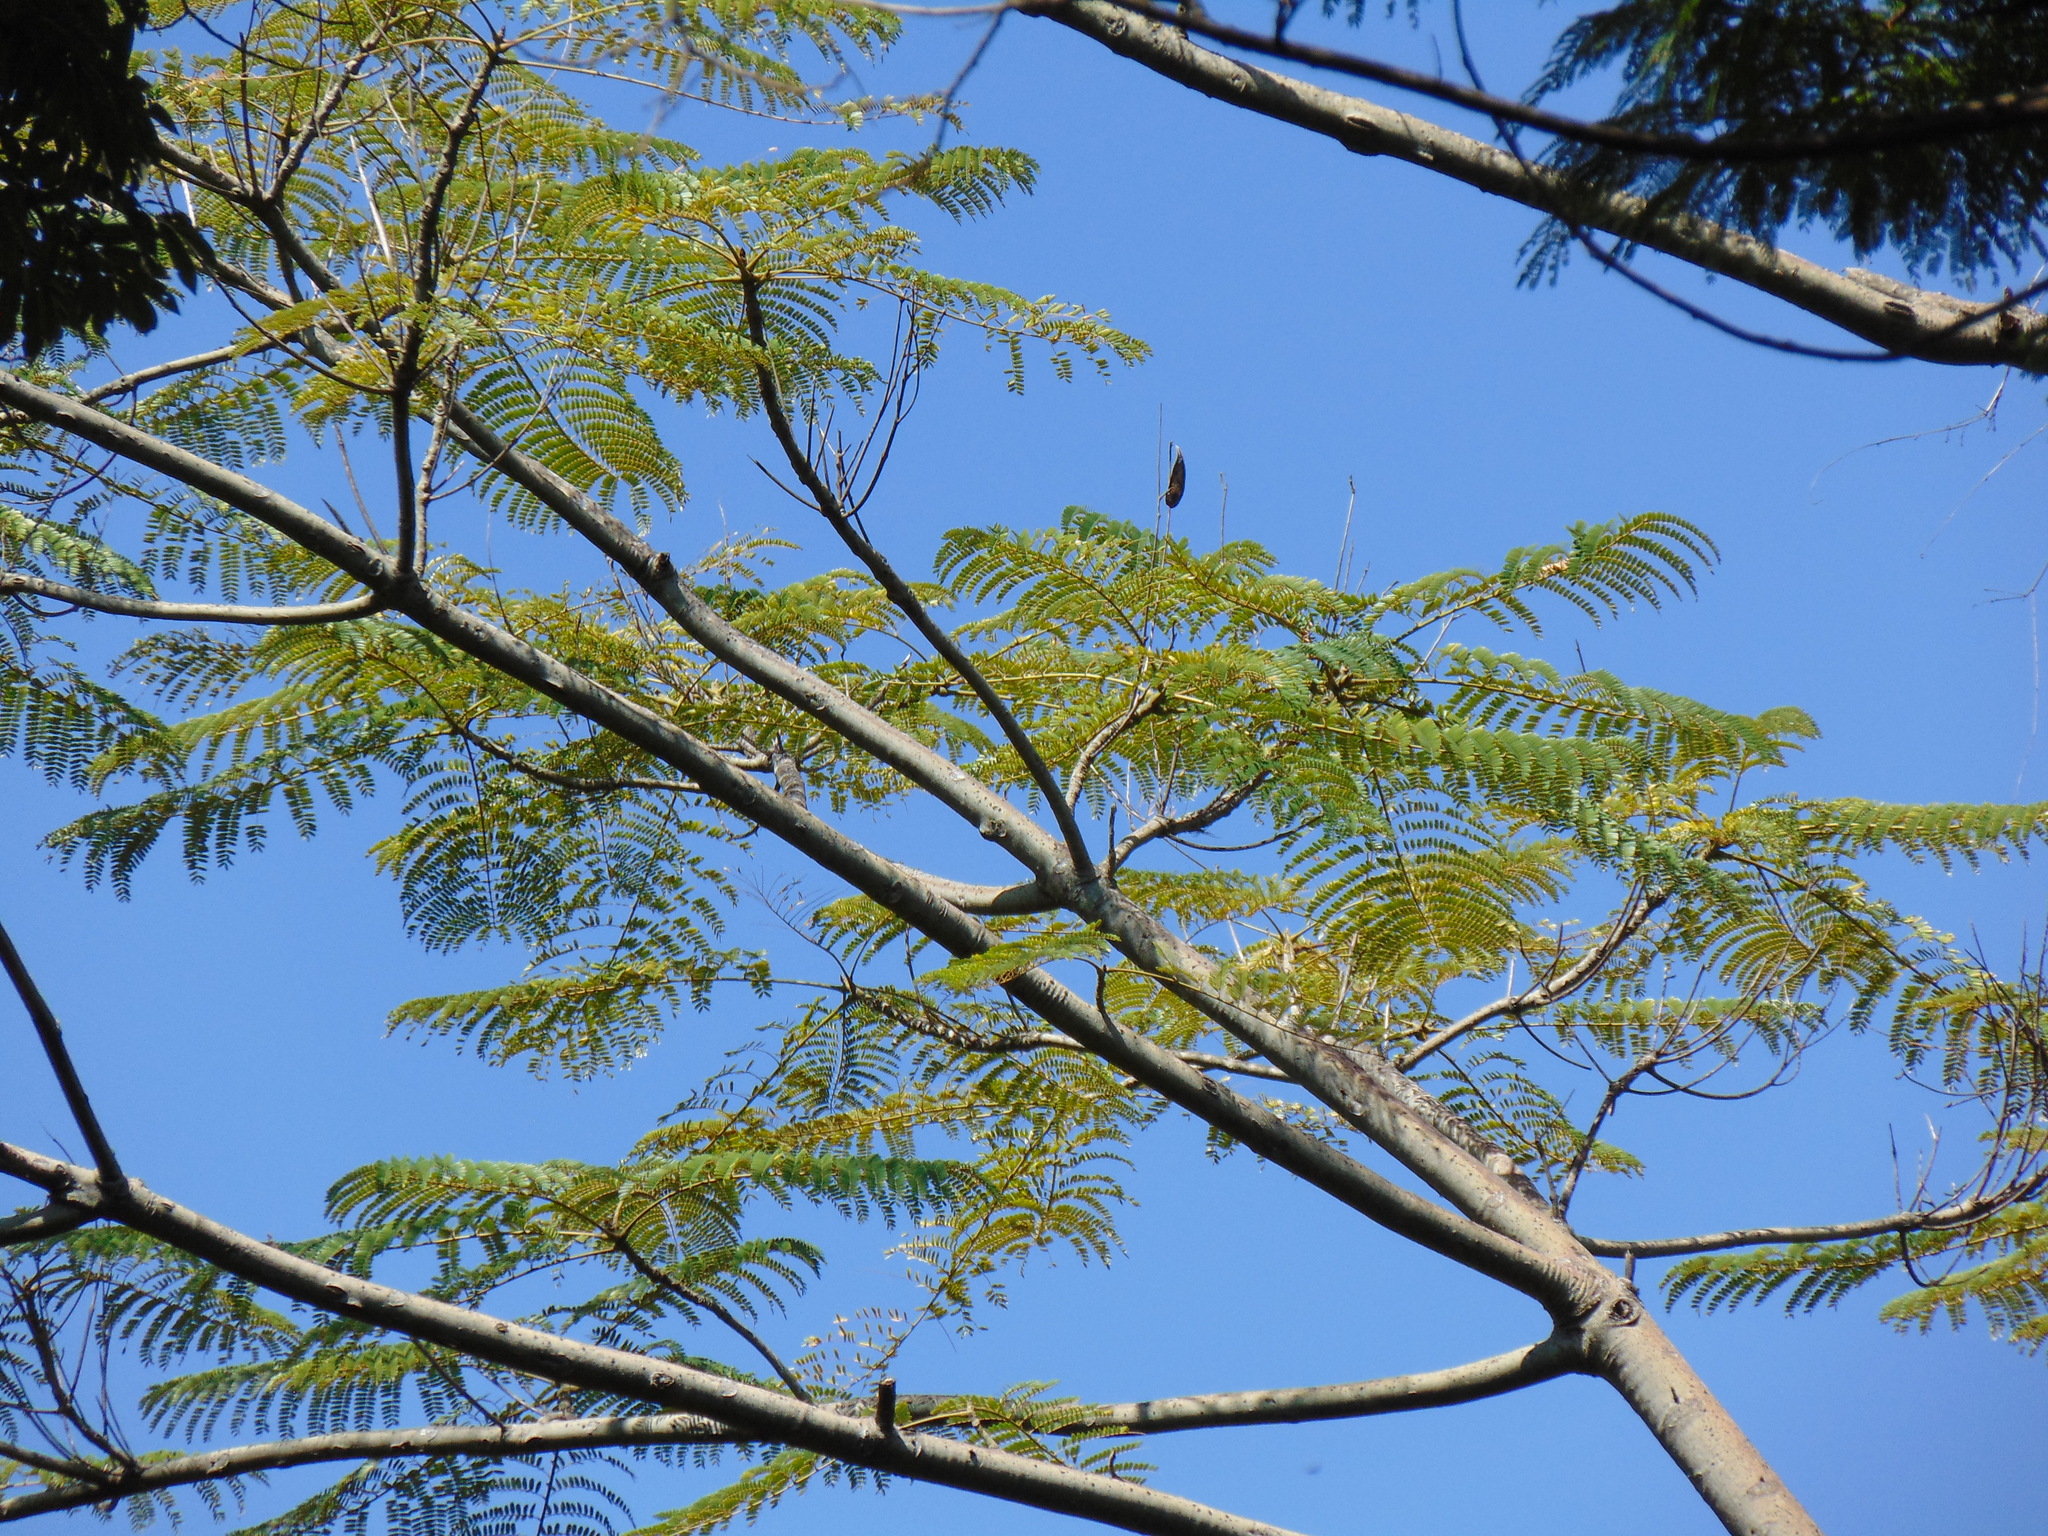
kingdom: Plantae
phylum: Tracheophyta
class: Magnoliopsida
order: Fabales
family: Fabaceae
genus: Schizolobium
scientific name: Schizolobium parahyba
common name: Brazilian firetree
